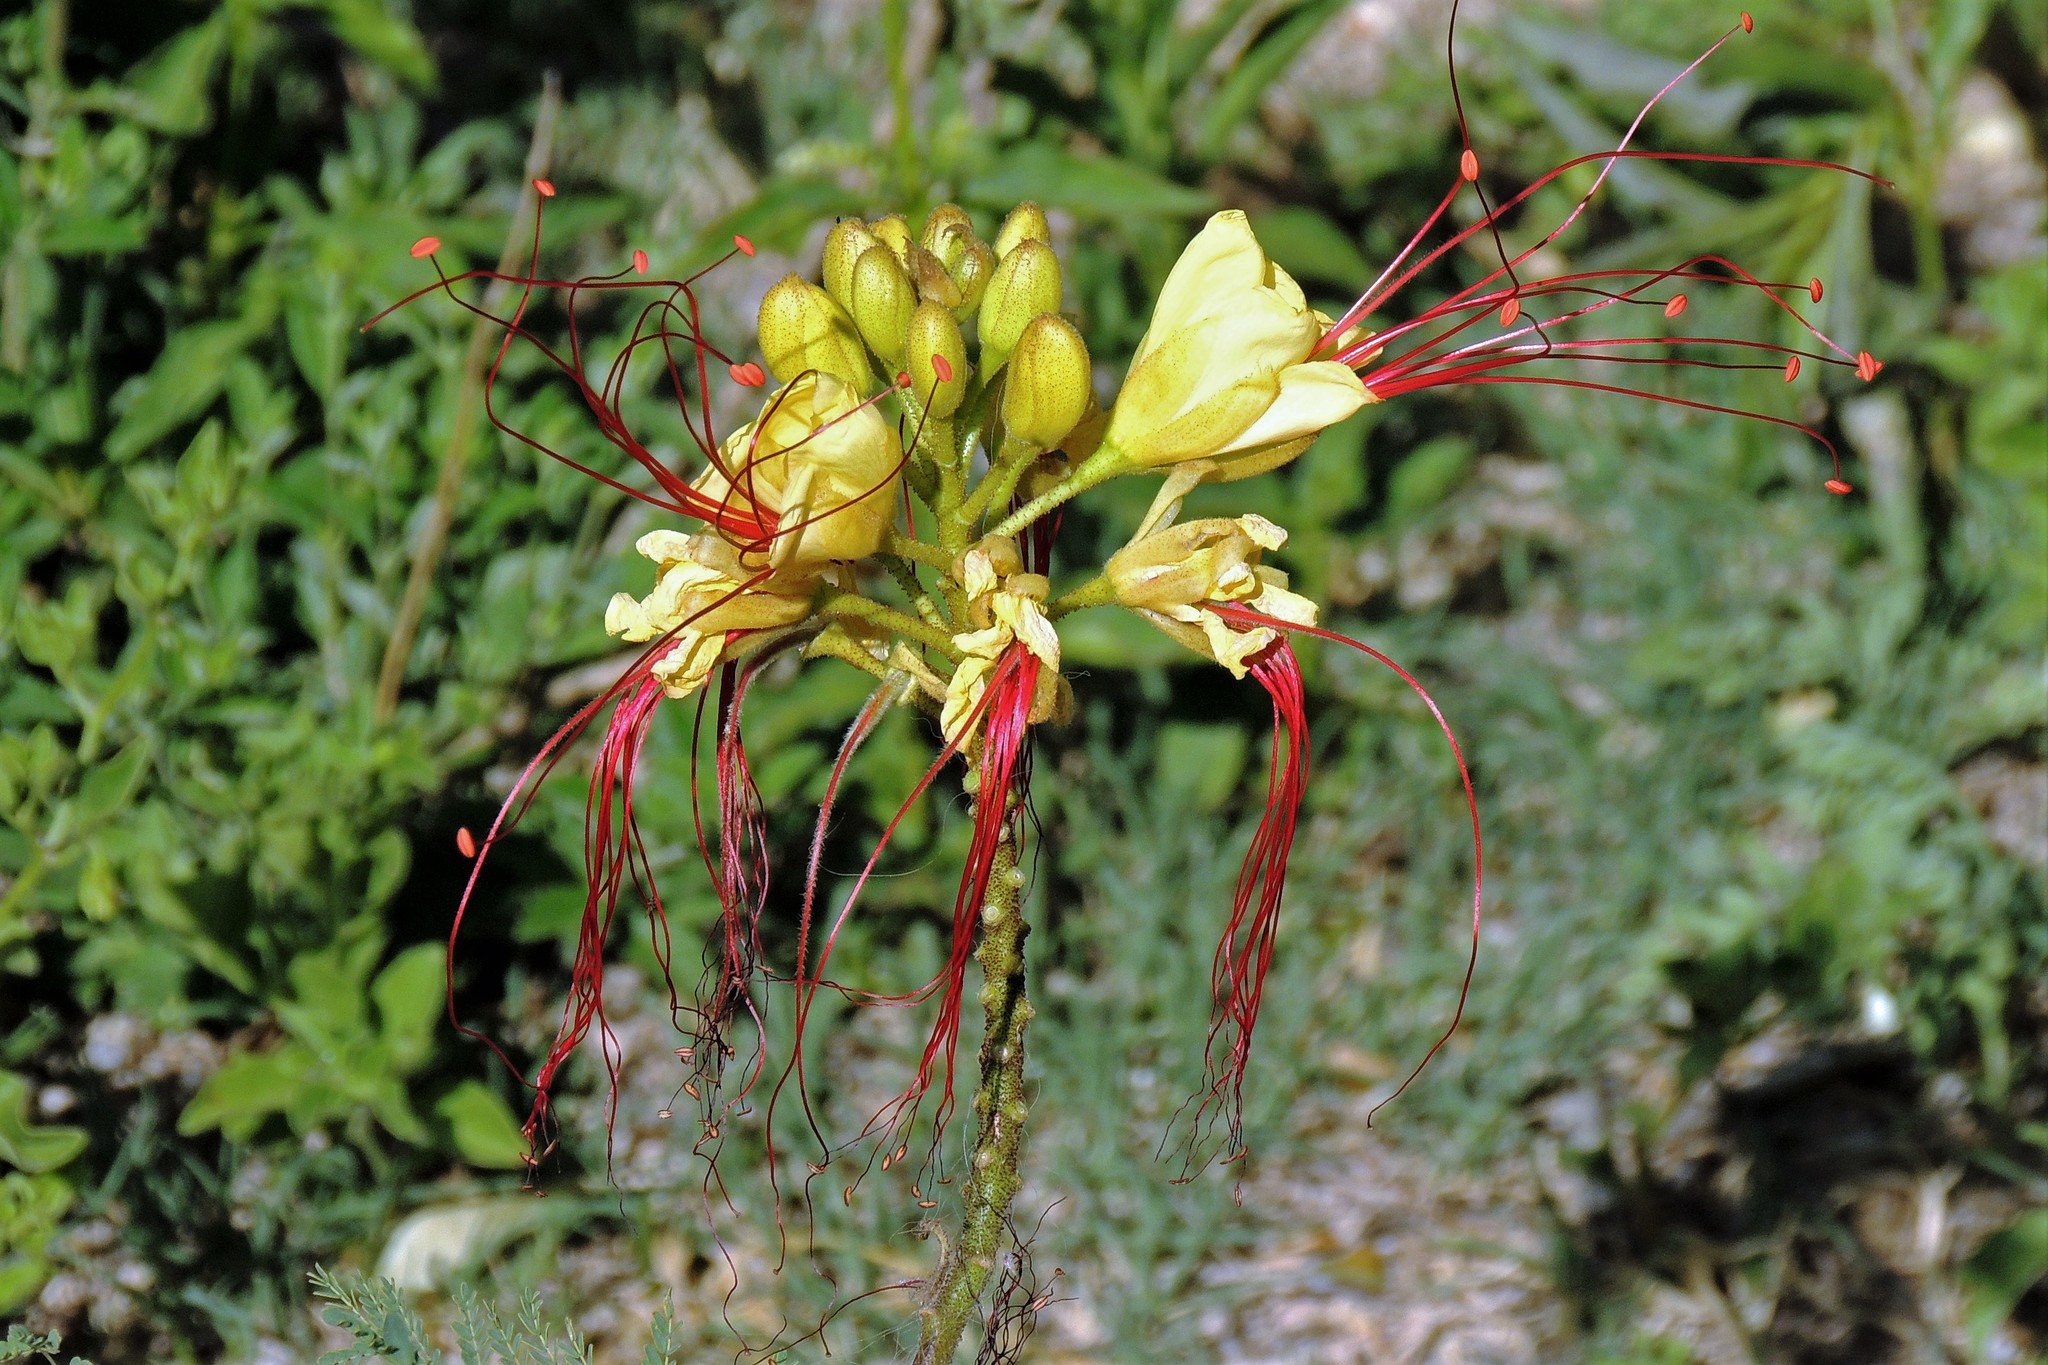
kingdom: Plantae
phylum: Tracheophyta
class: Magnoliopsida
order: Fabales
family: Fabaceae
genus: Erythrostemon
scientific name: Erythrostemon gilliesii
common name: Bird-of-paradise shrub
